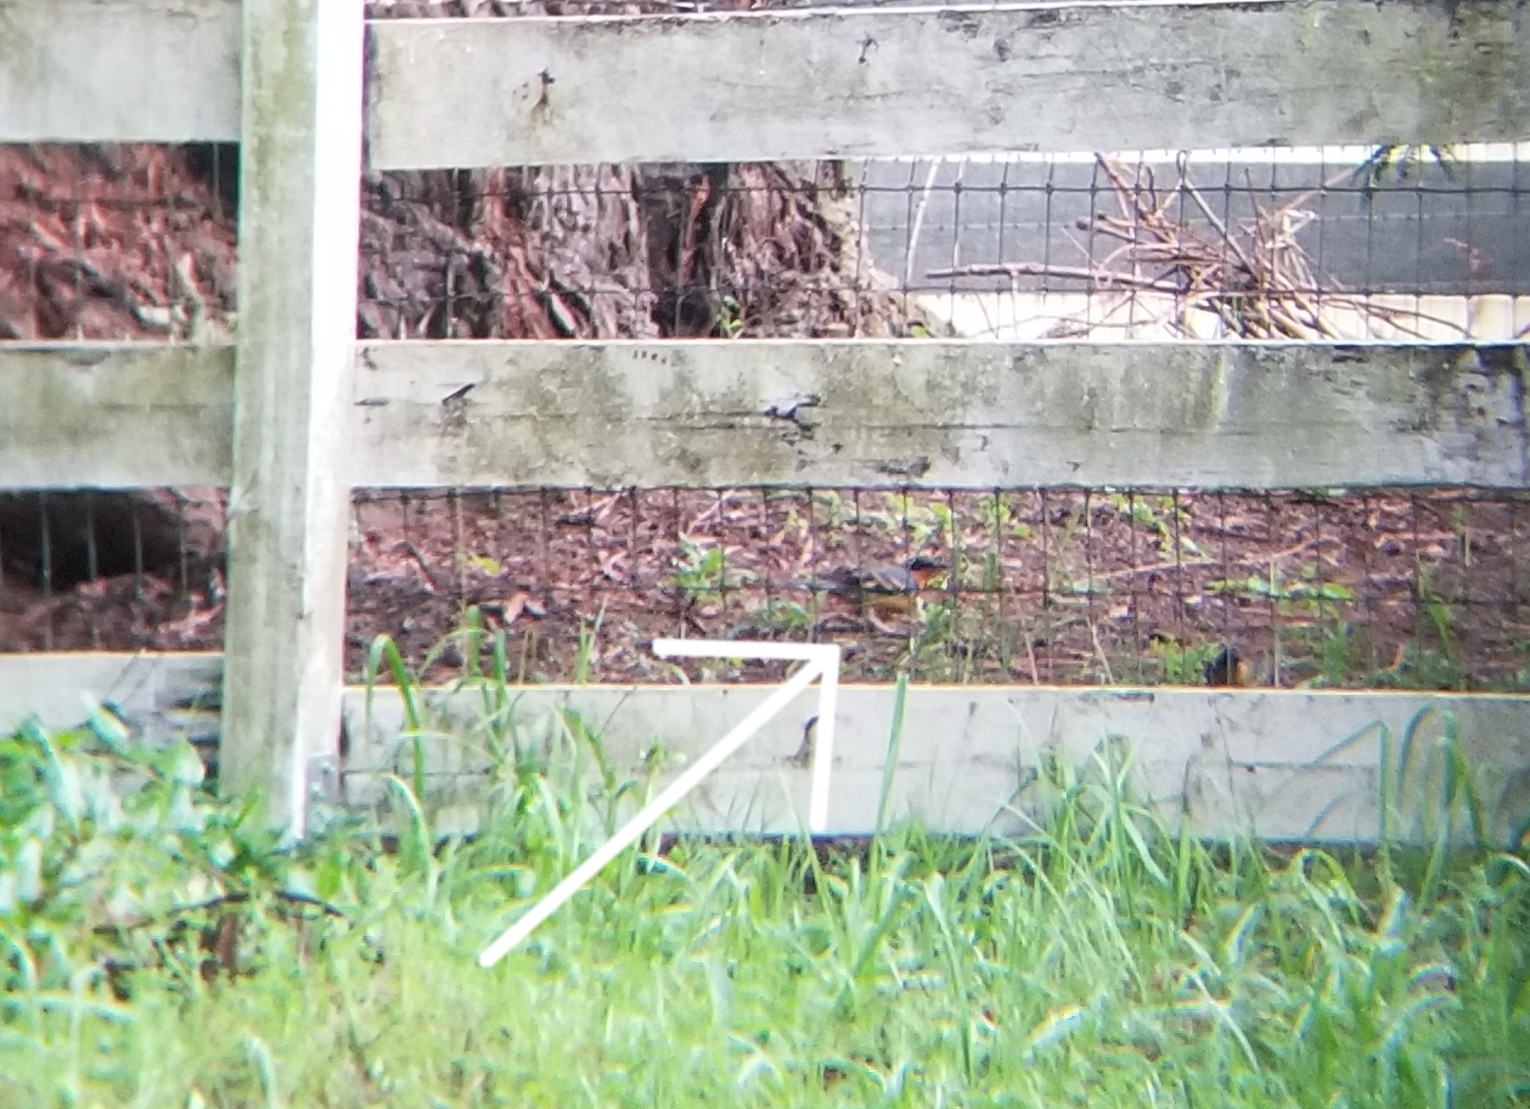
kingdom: Animalia
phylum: Chordata
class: Aves
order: Passeriformes
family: Turdidae
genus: Ixoreus
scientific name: Ixoreus naevius
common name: Varied thrush
